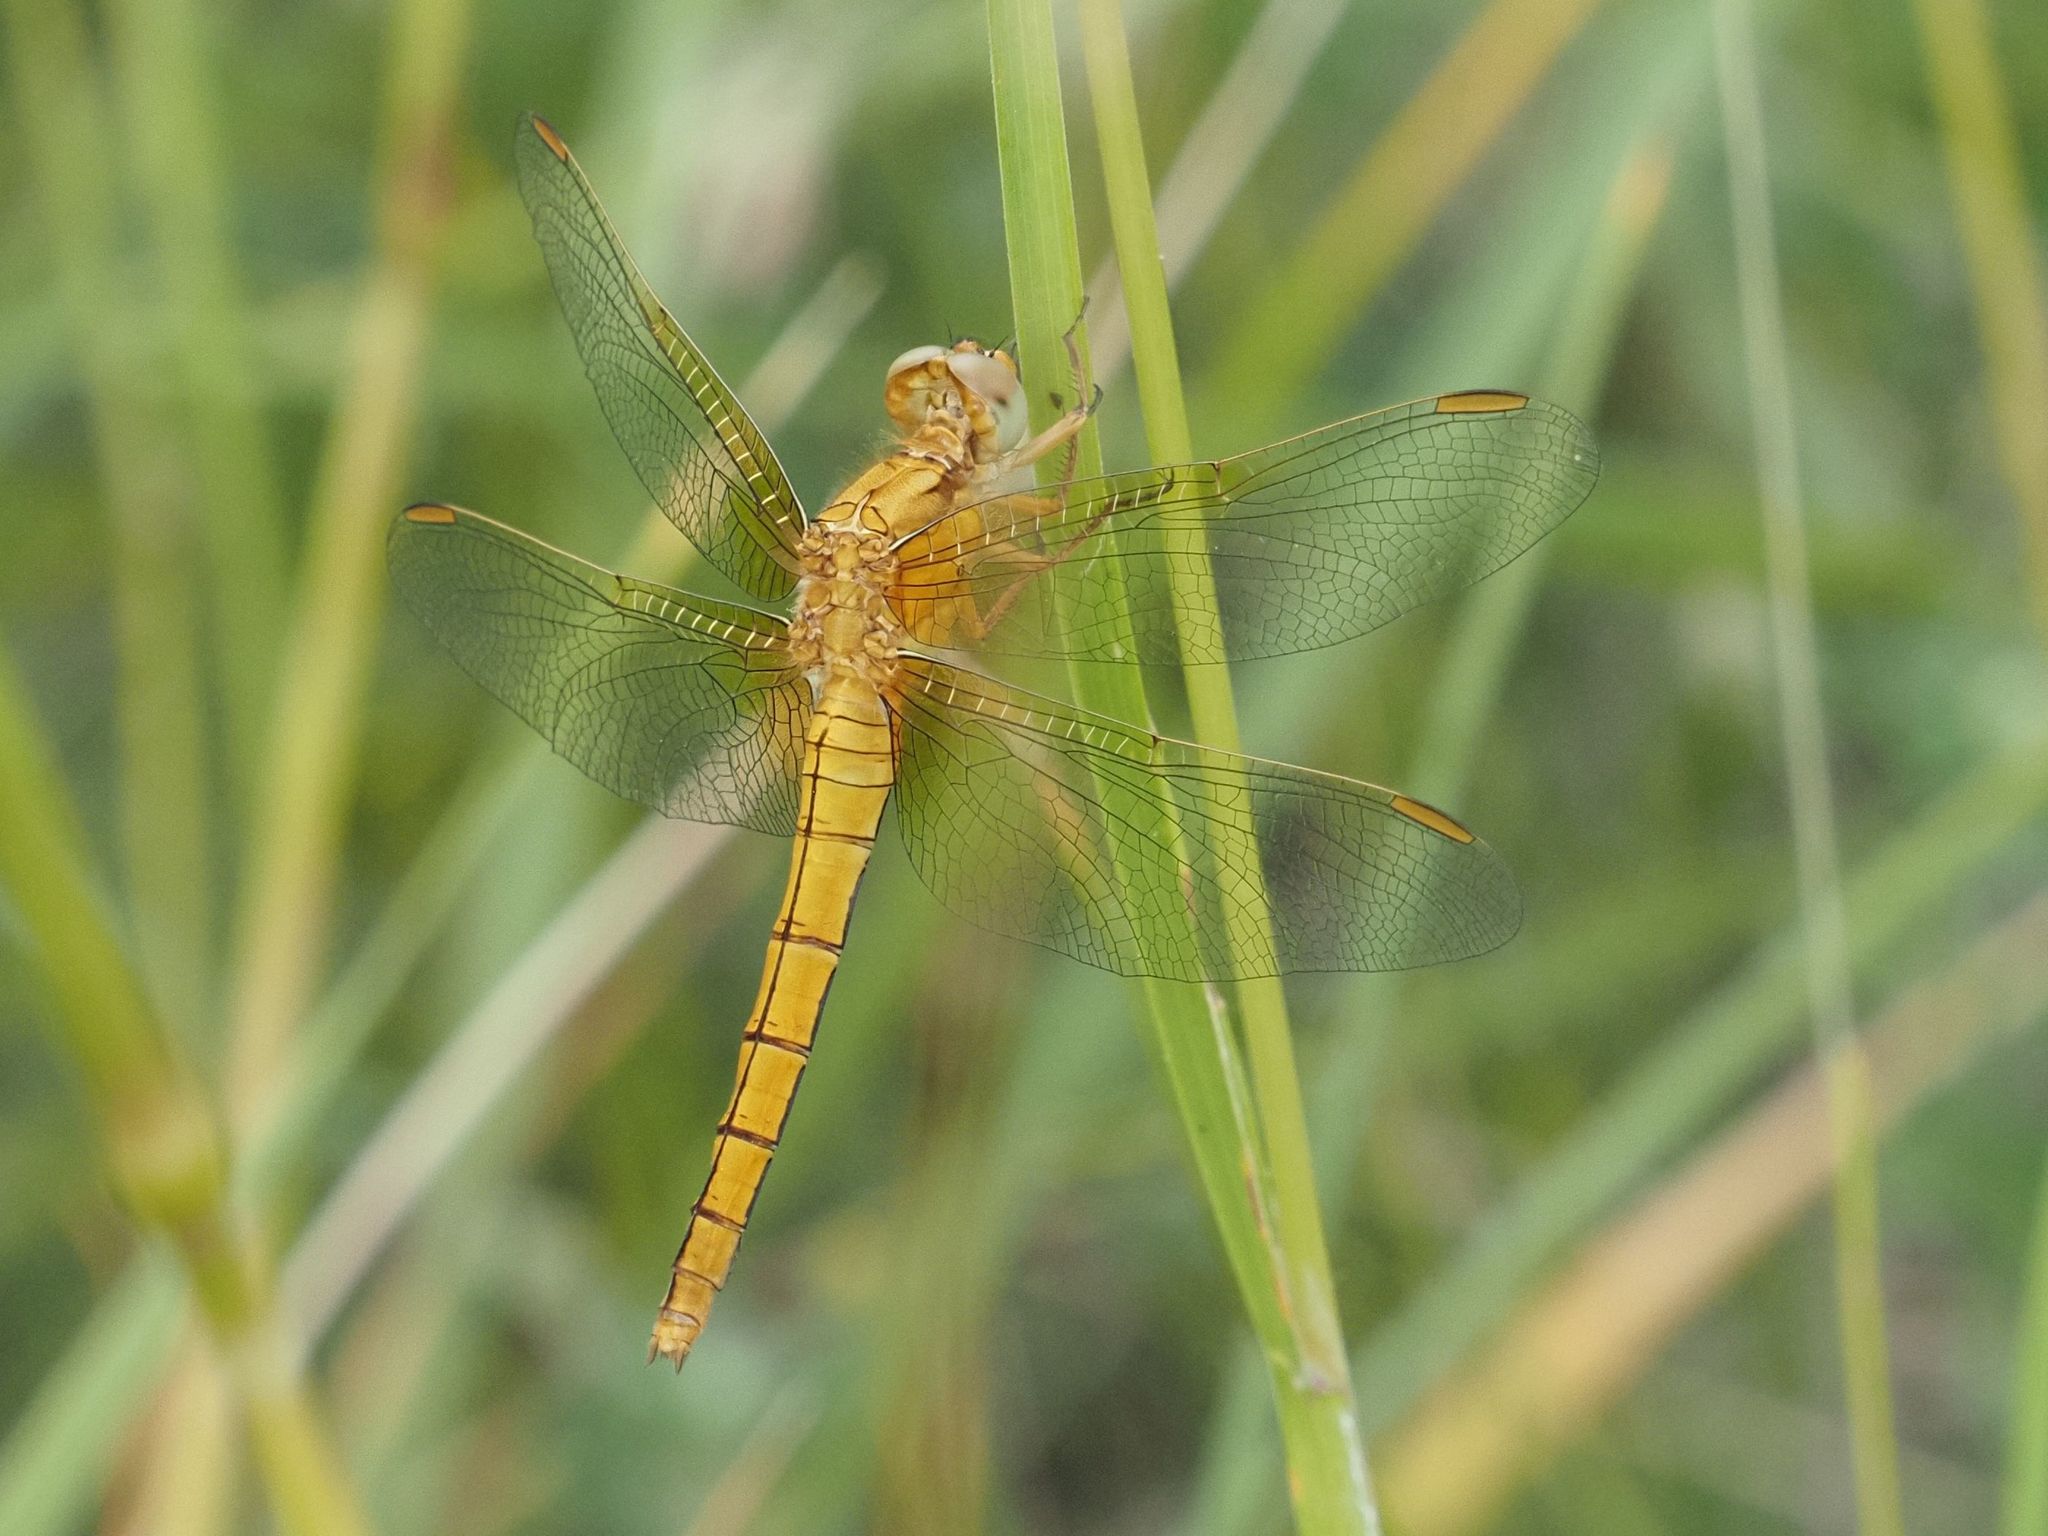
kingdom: Animalia
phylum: Arthropoda
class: Insecta
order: Odonata
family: Libellulidae
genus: Orthetrum
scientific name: Orthetrum coerulescens
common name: Keeled skimmer
